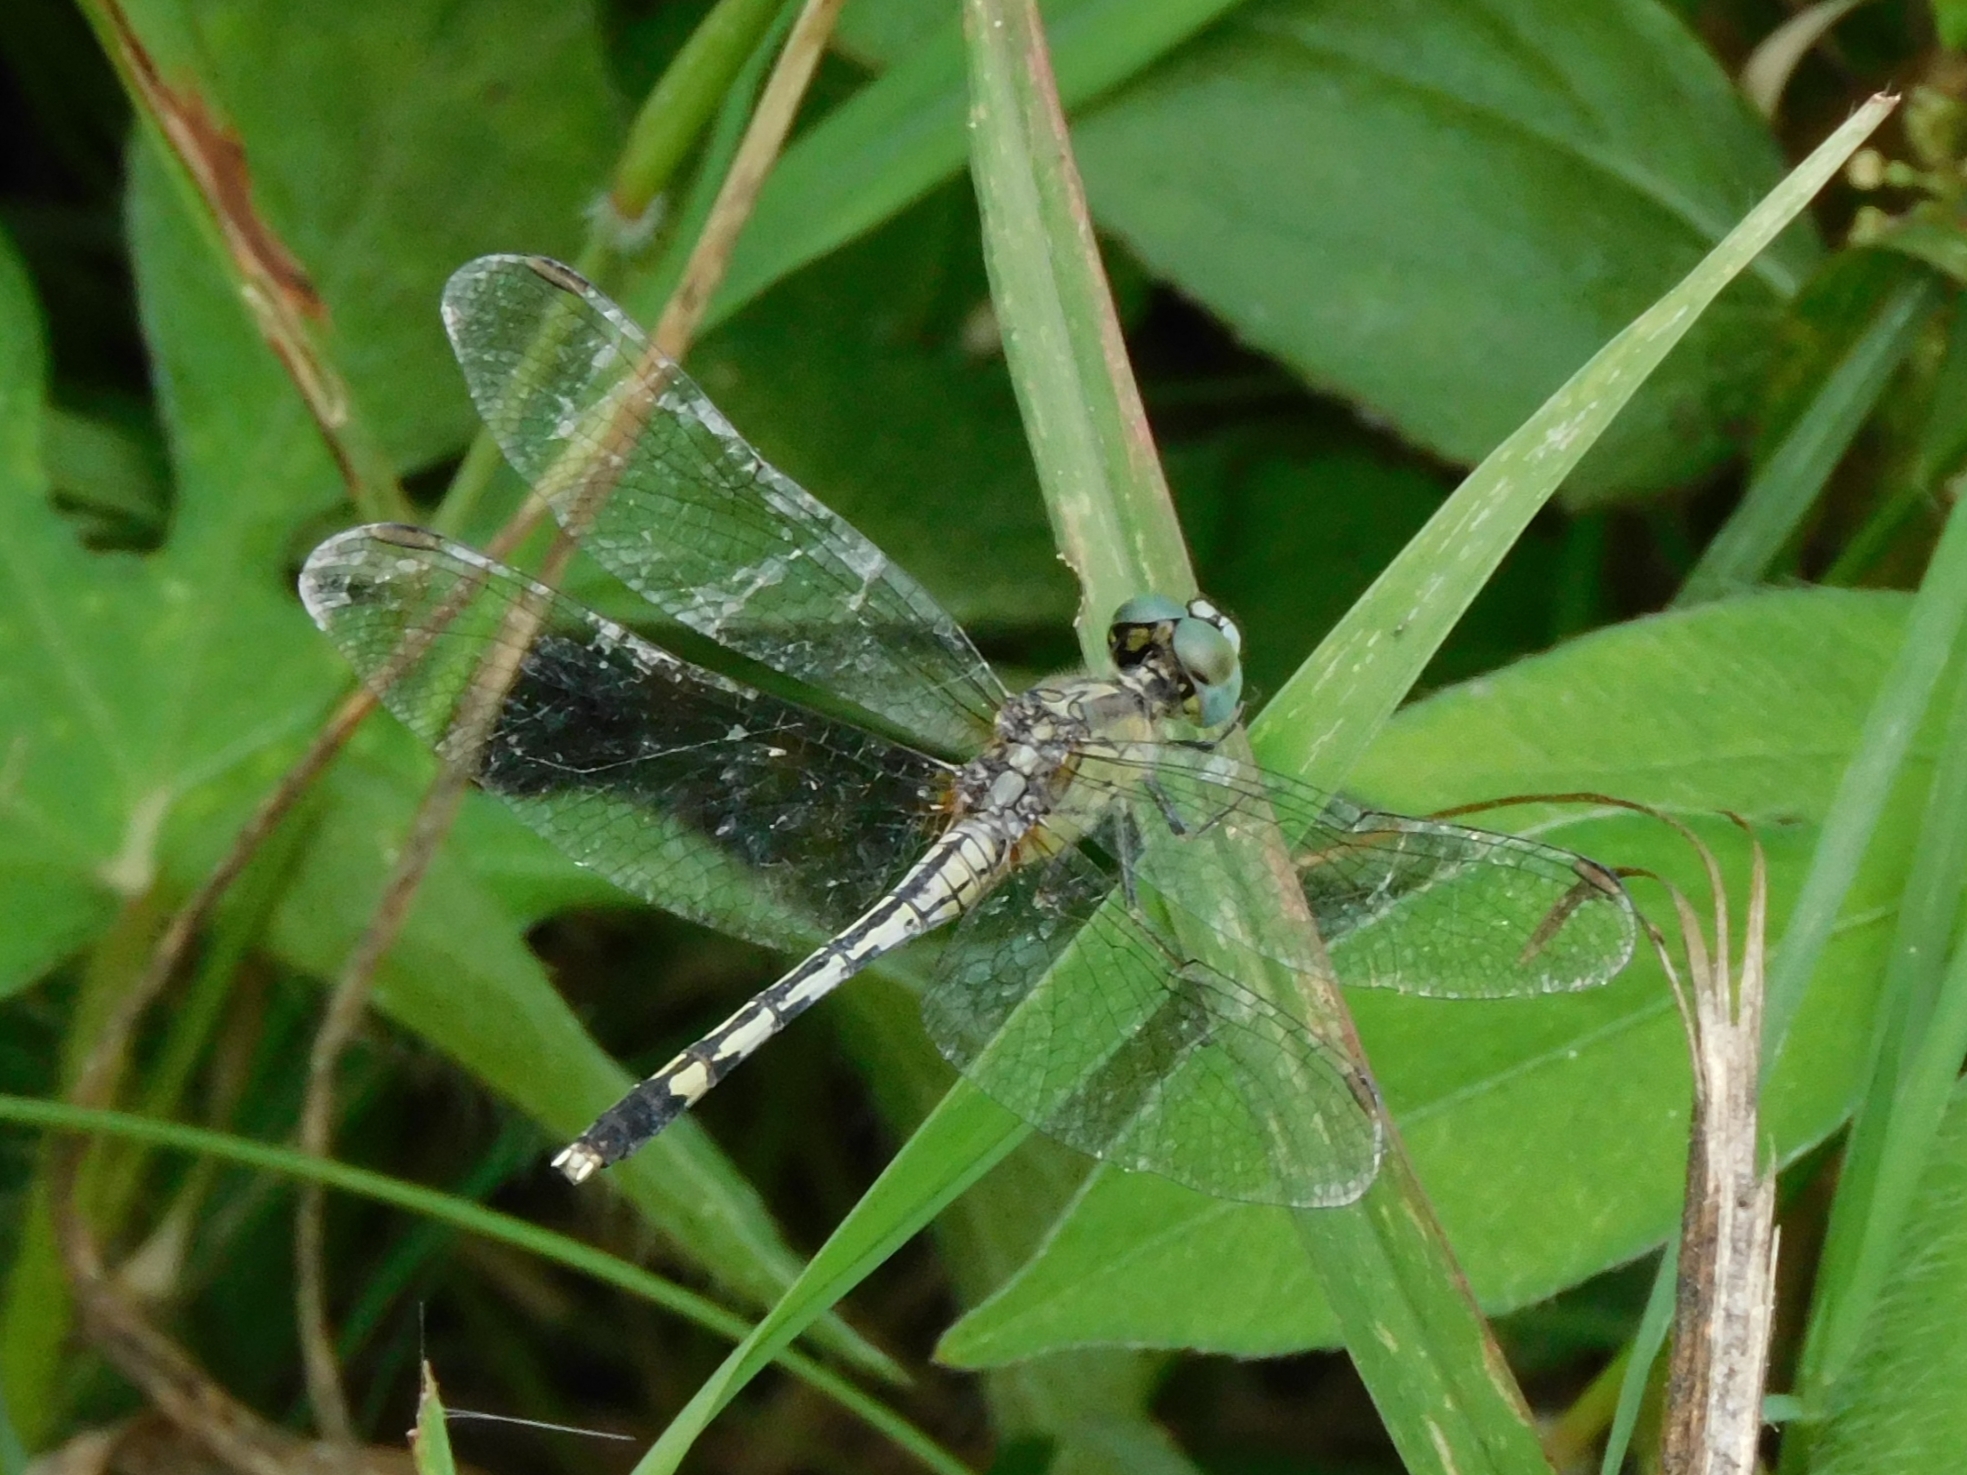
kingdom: Animalia
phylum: Arthropoda
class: Insecta
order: Odonata
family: Libellulidae
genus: Diplacodes
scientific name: Diplacodes trivialis
